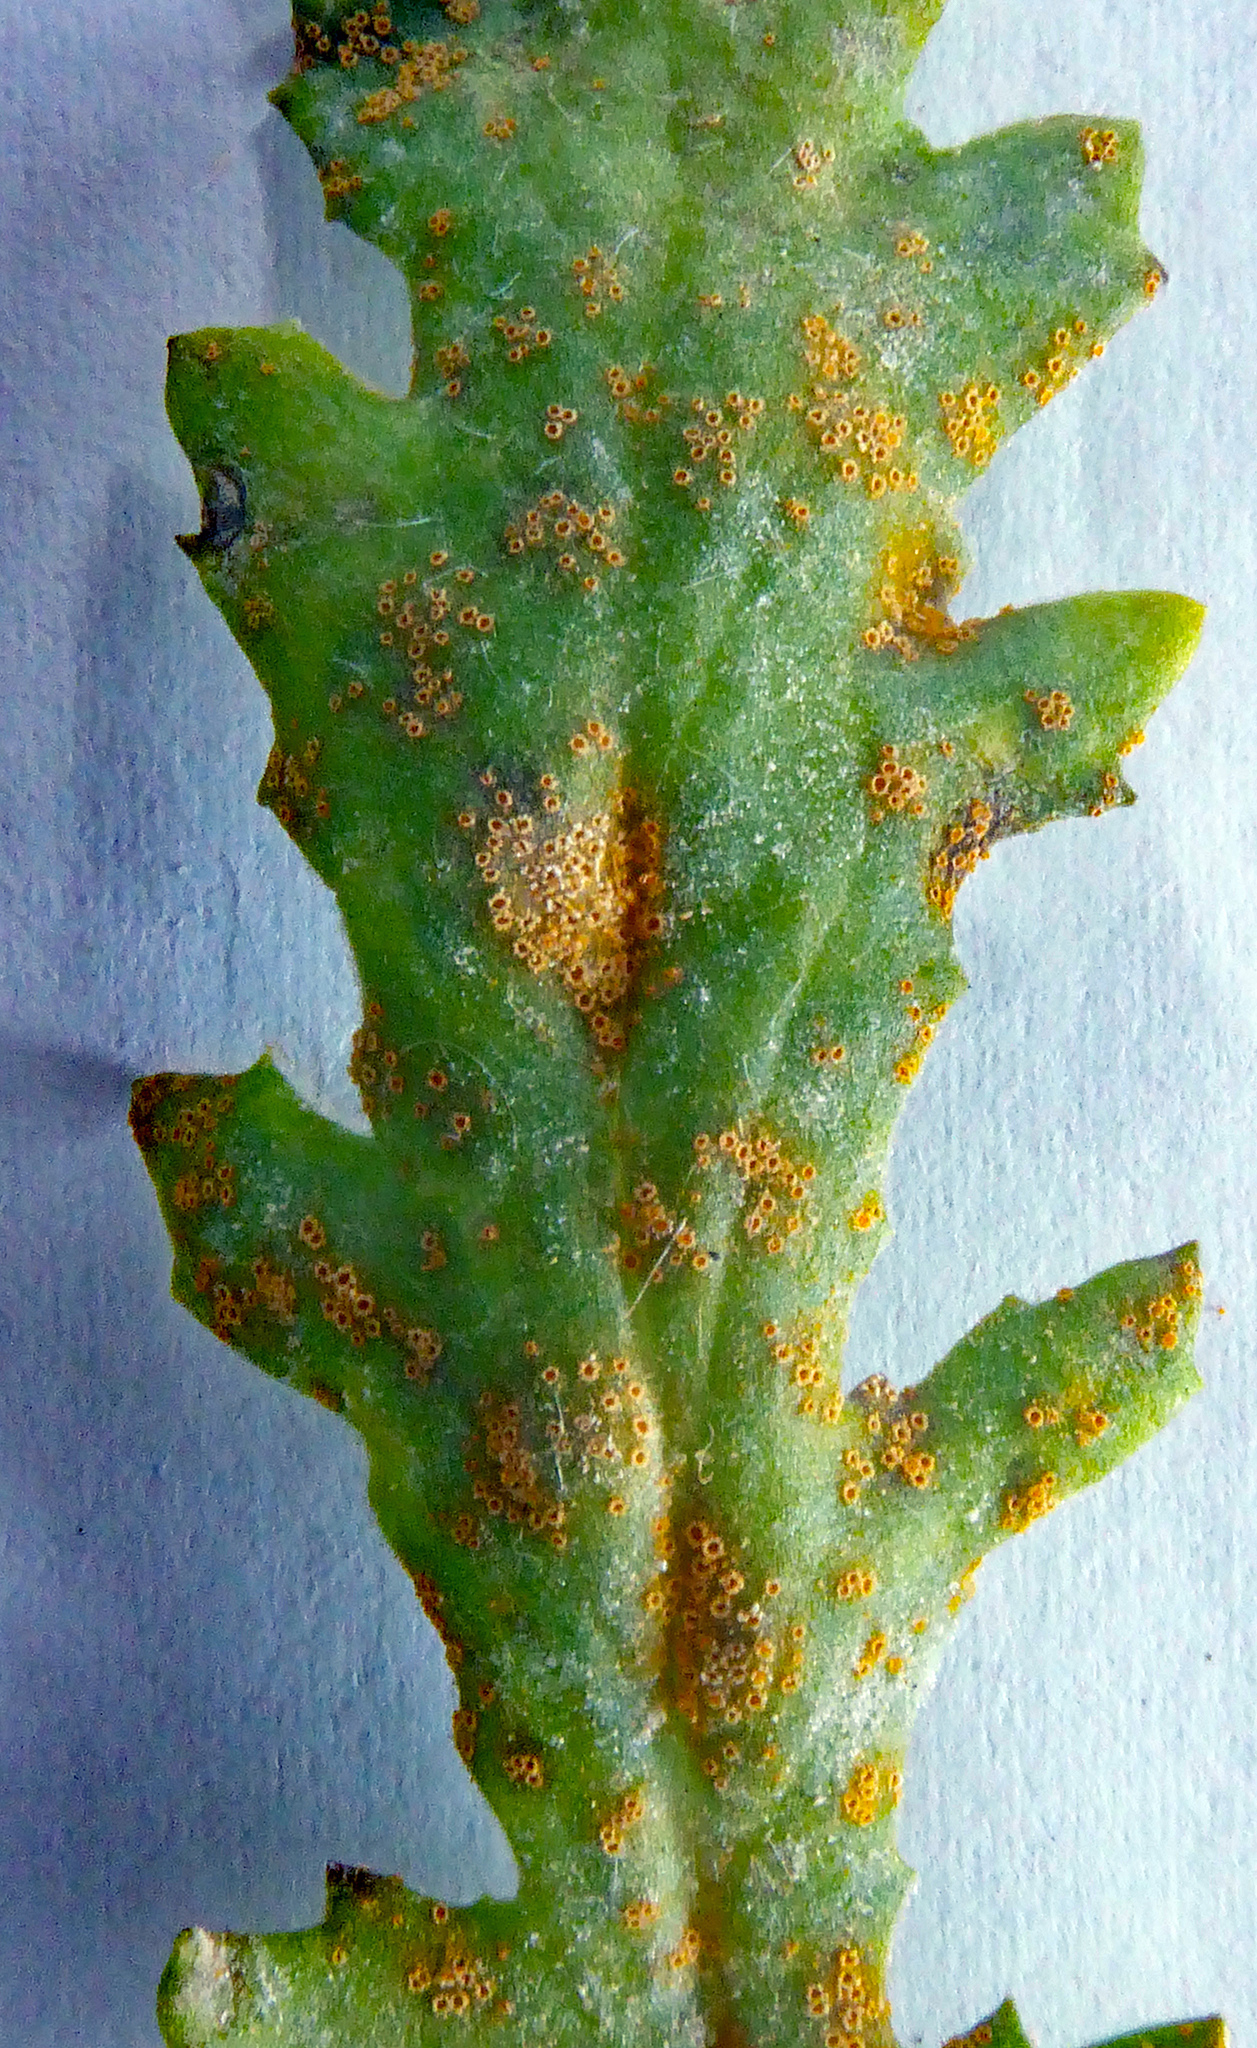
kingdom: Fungi
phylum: Basidiomycota
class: Pucciniomycetes
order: Pucciniales
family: Pucciniaceae
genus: Puccinia
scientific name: Puccinia lagenophorae
